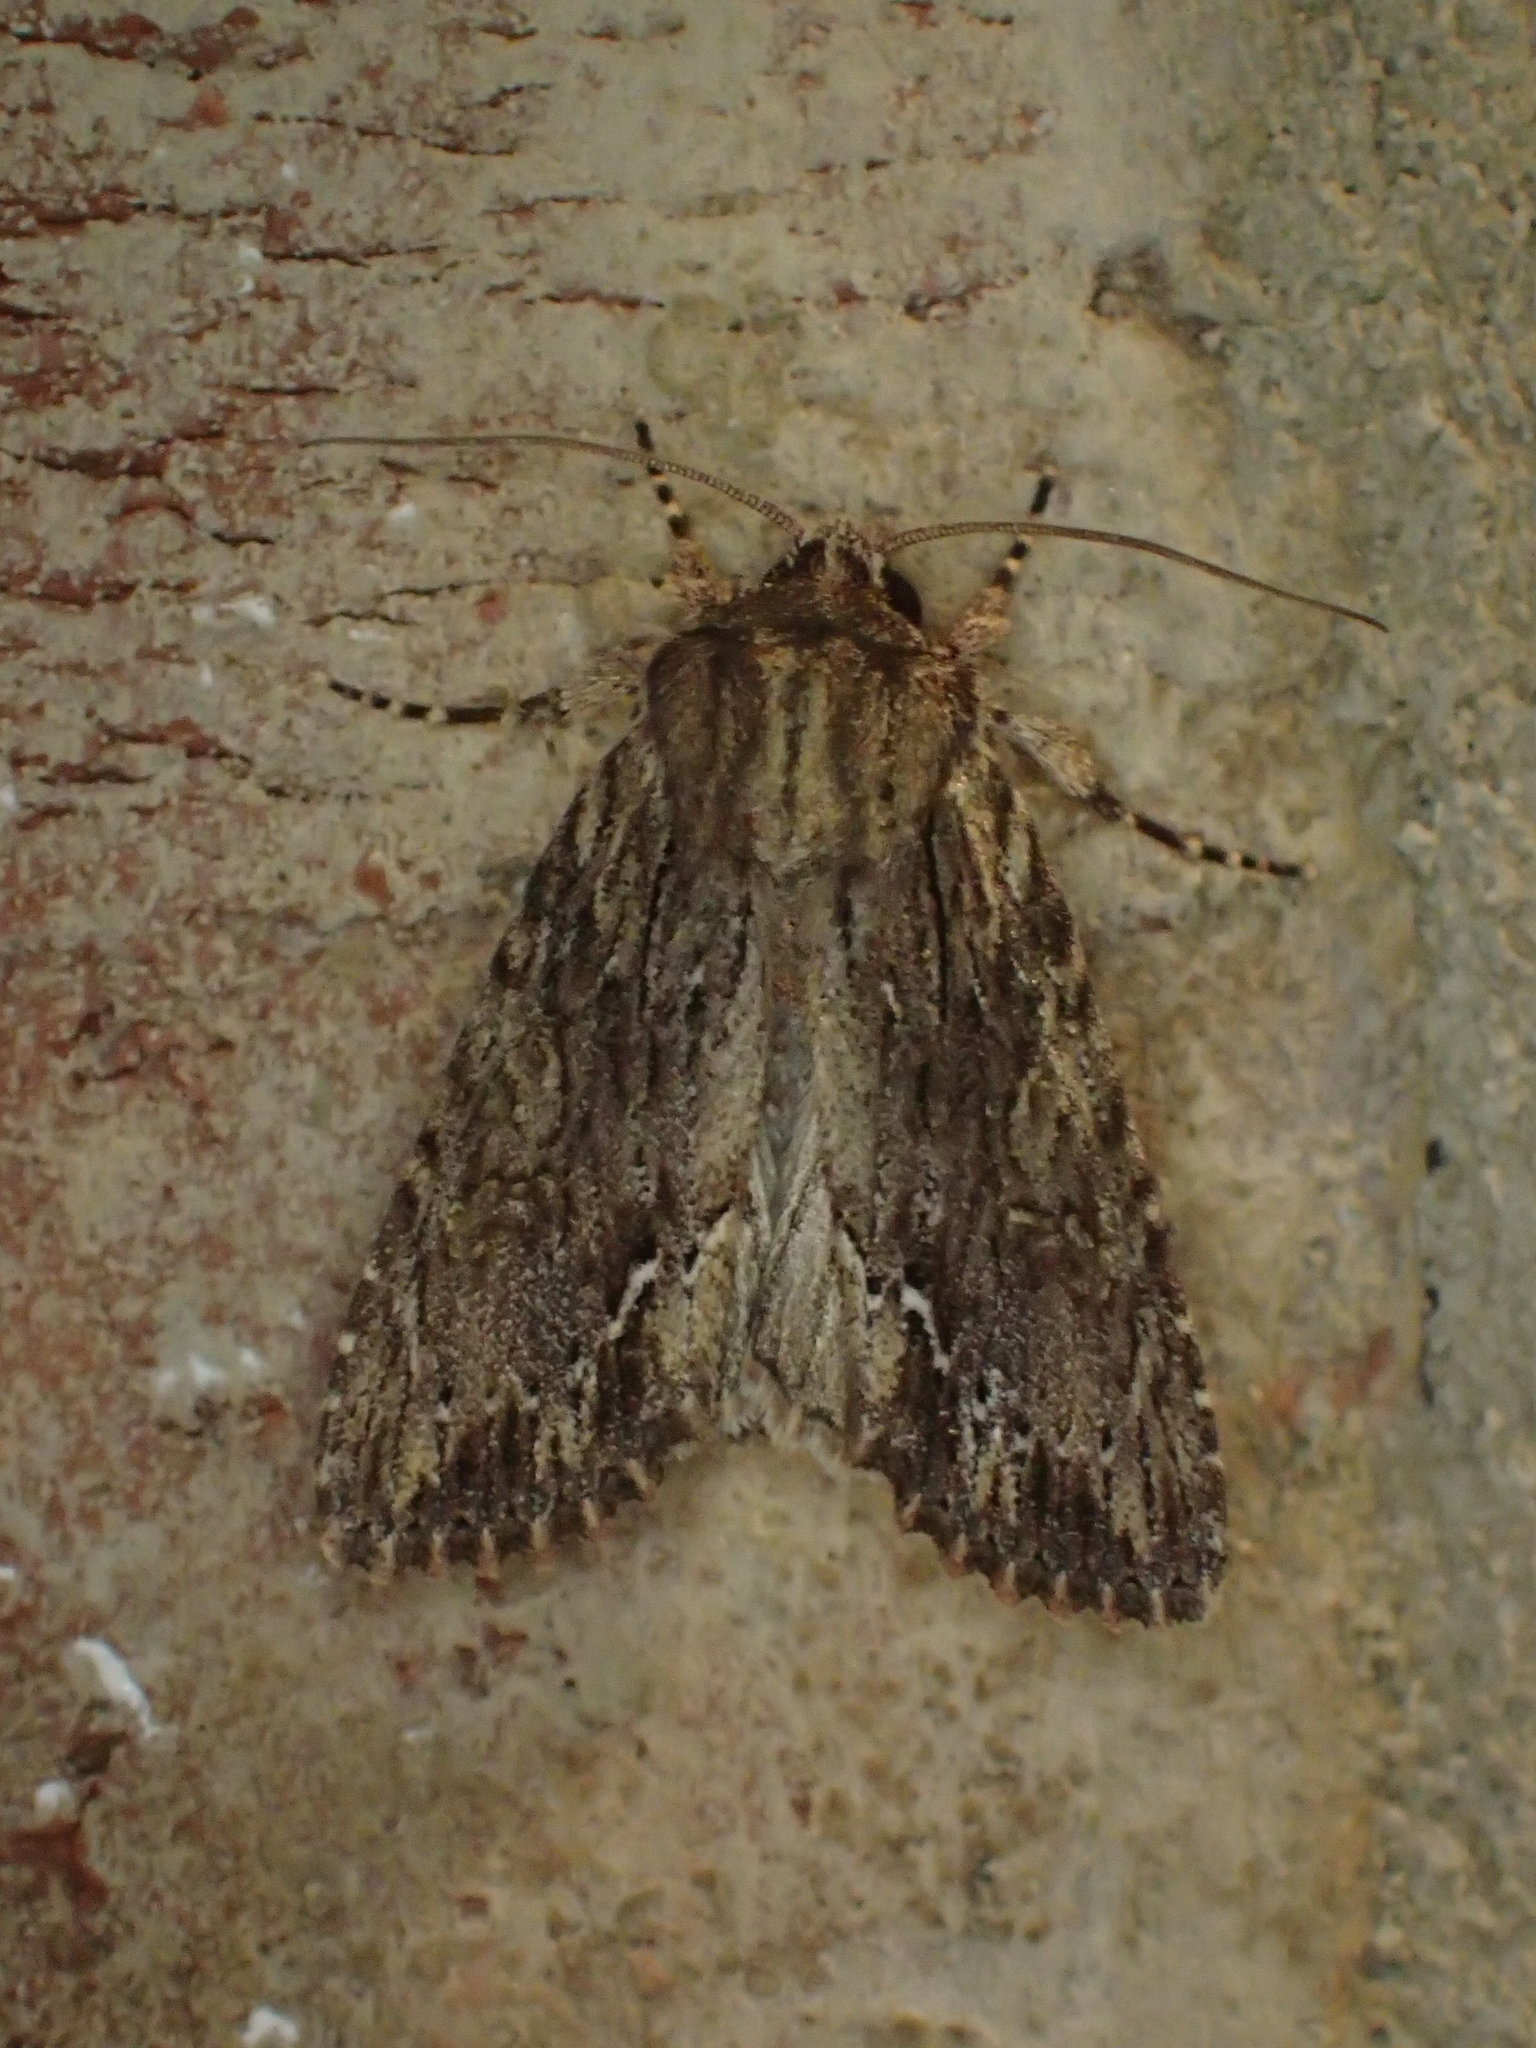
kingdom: Animalia
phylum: Arthropoda
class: Insecta
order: Lepidoptera
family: Noctuidae
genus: Achatia
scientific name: Achatia confusa
